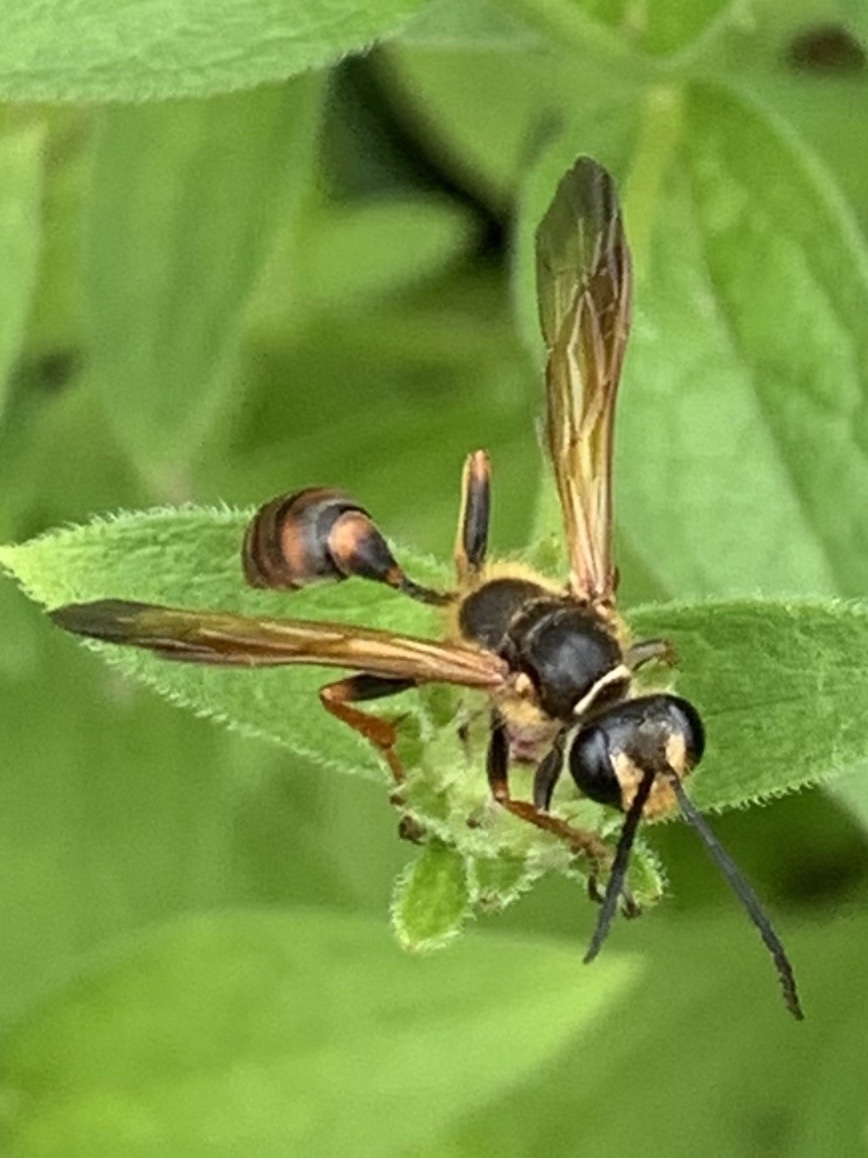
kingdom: Animalia
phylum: Arthropoda
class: Insecta
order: Hymenoptera
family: Sphecidae
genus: Isodontia
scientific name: Isodontia elegans
